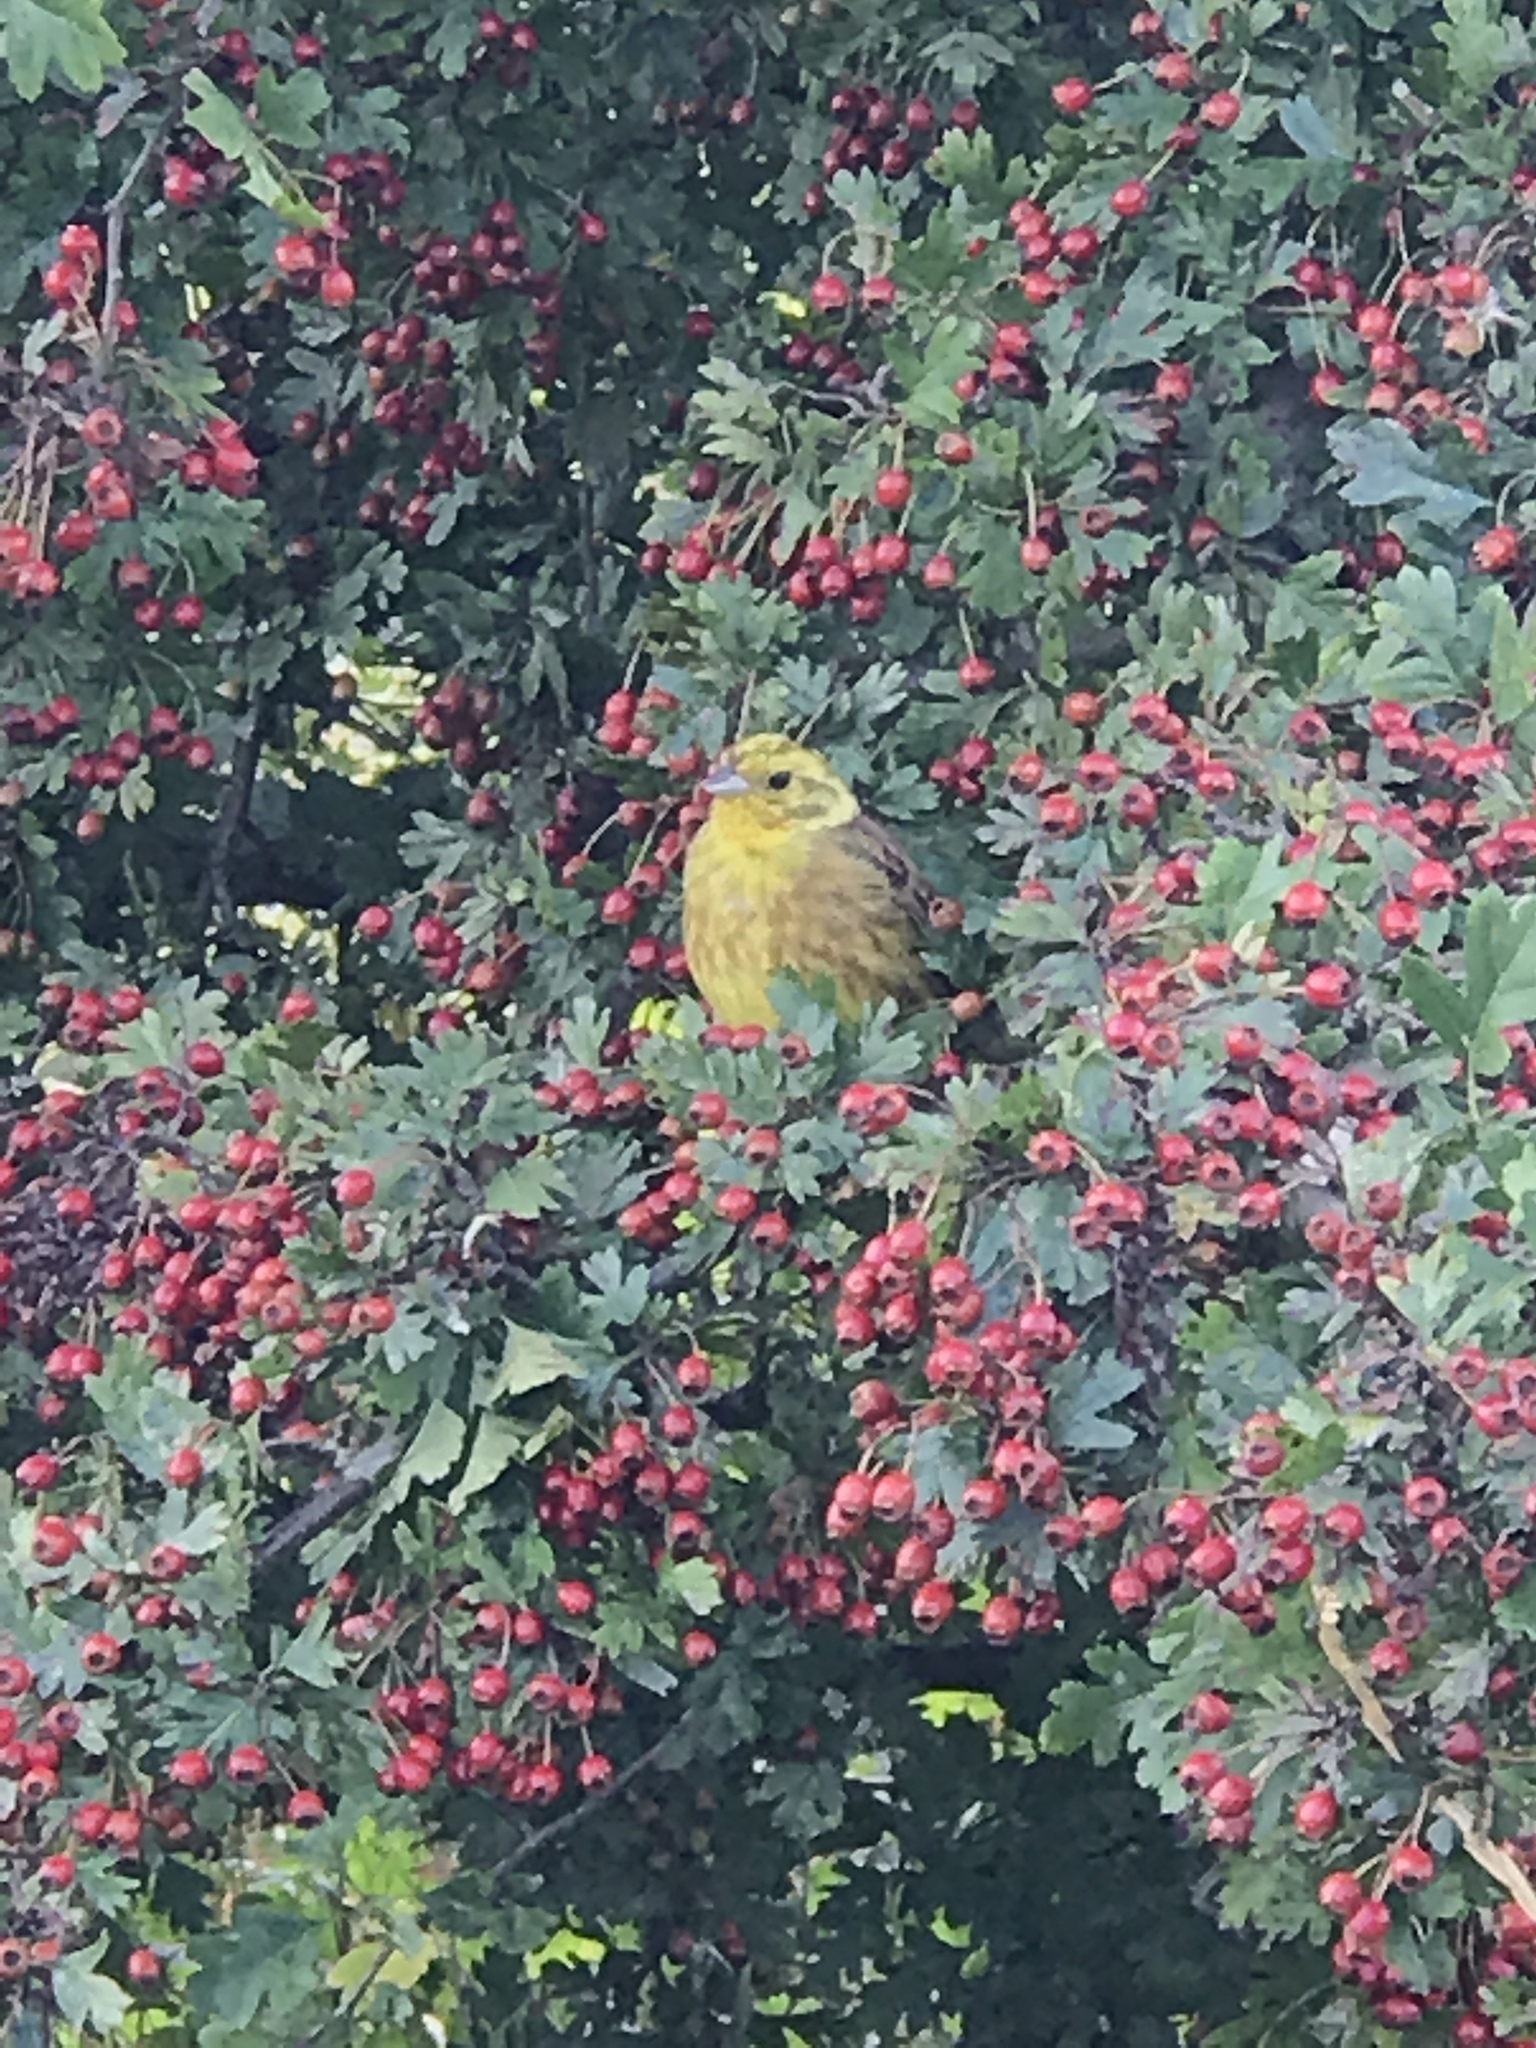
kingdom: Animalia
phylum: Chordata
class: Aves
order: Passeriformes
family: Emberizidae
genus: Emberiza
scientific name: Emberiza citrinella
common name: Yellowhammer
